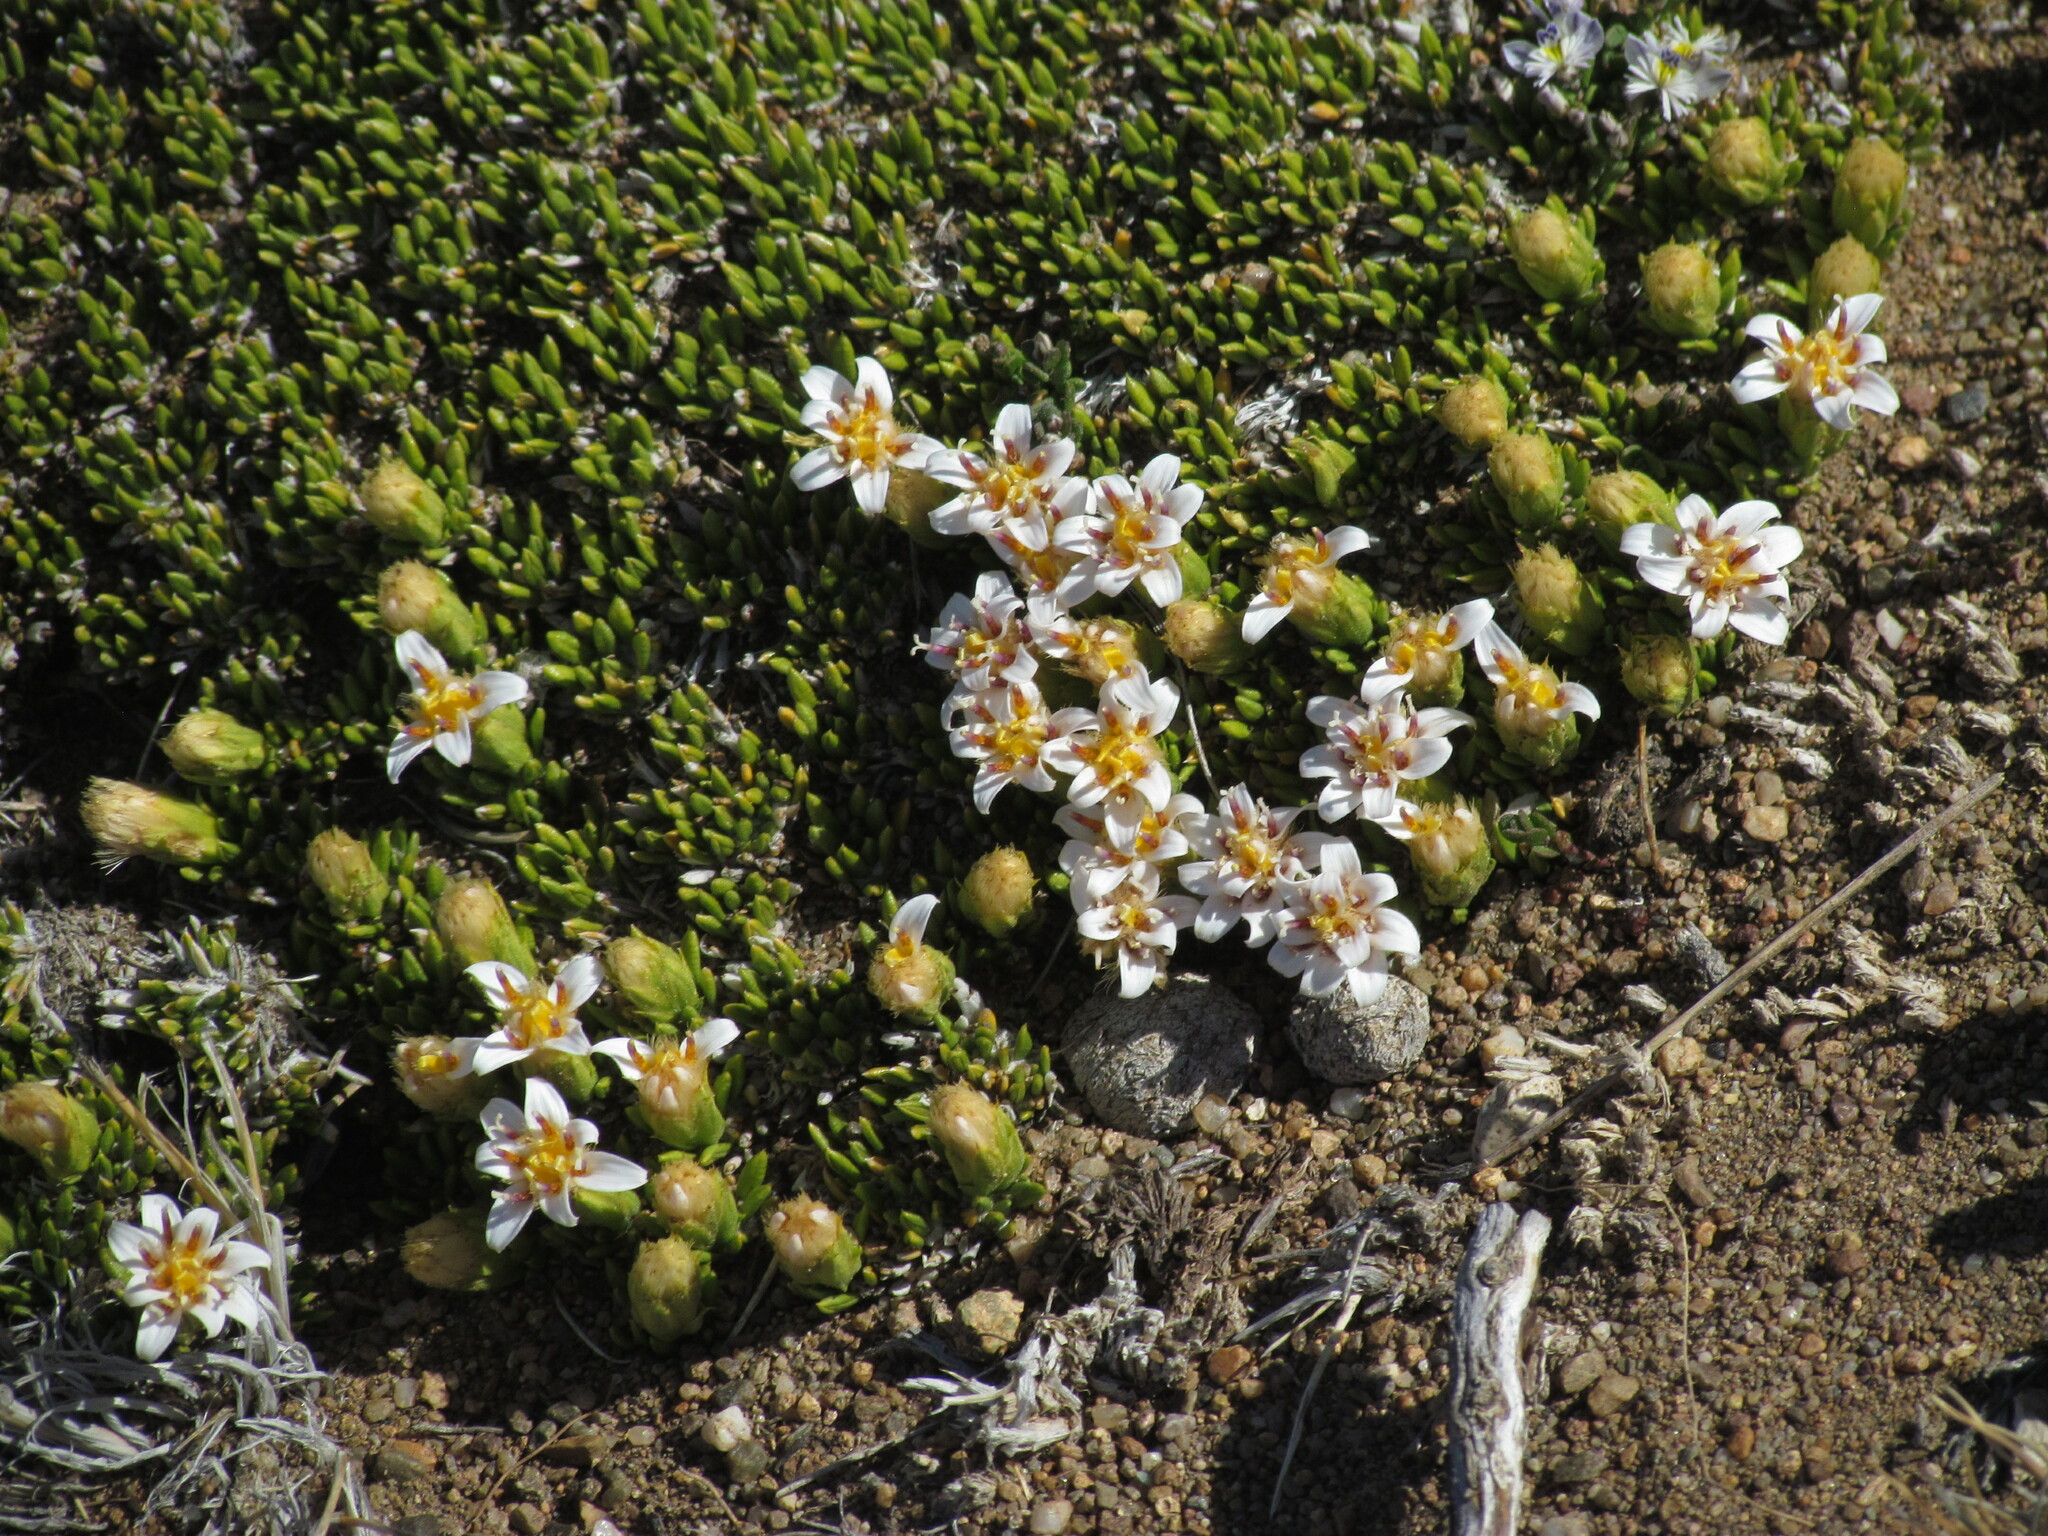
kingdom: Plantae
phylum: Tracheophyta
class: Magnoliopsida
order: Asterales
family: Asteraceae
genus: Burkartia
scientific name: Burkartia lanigera
